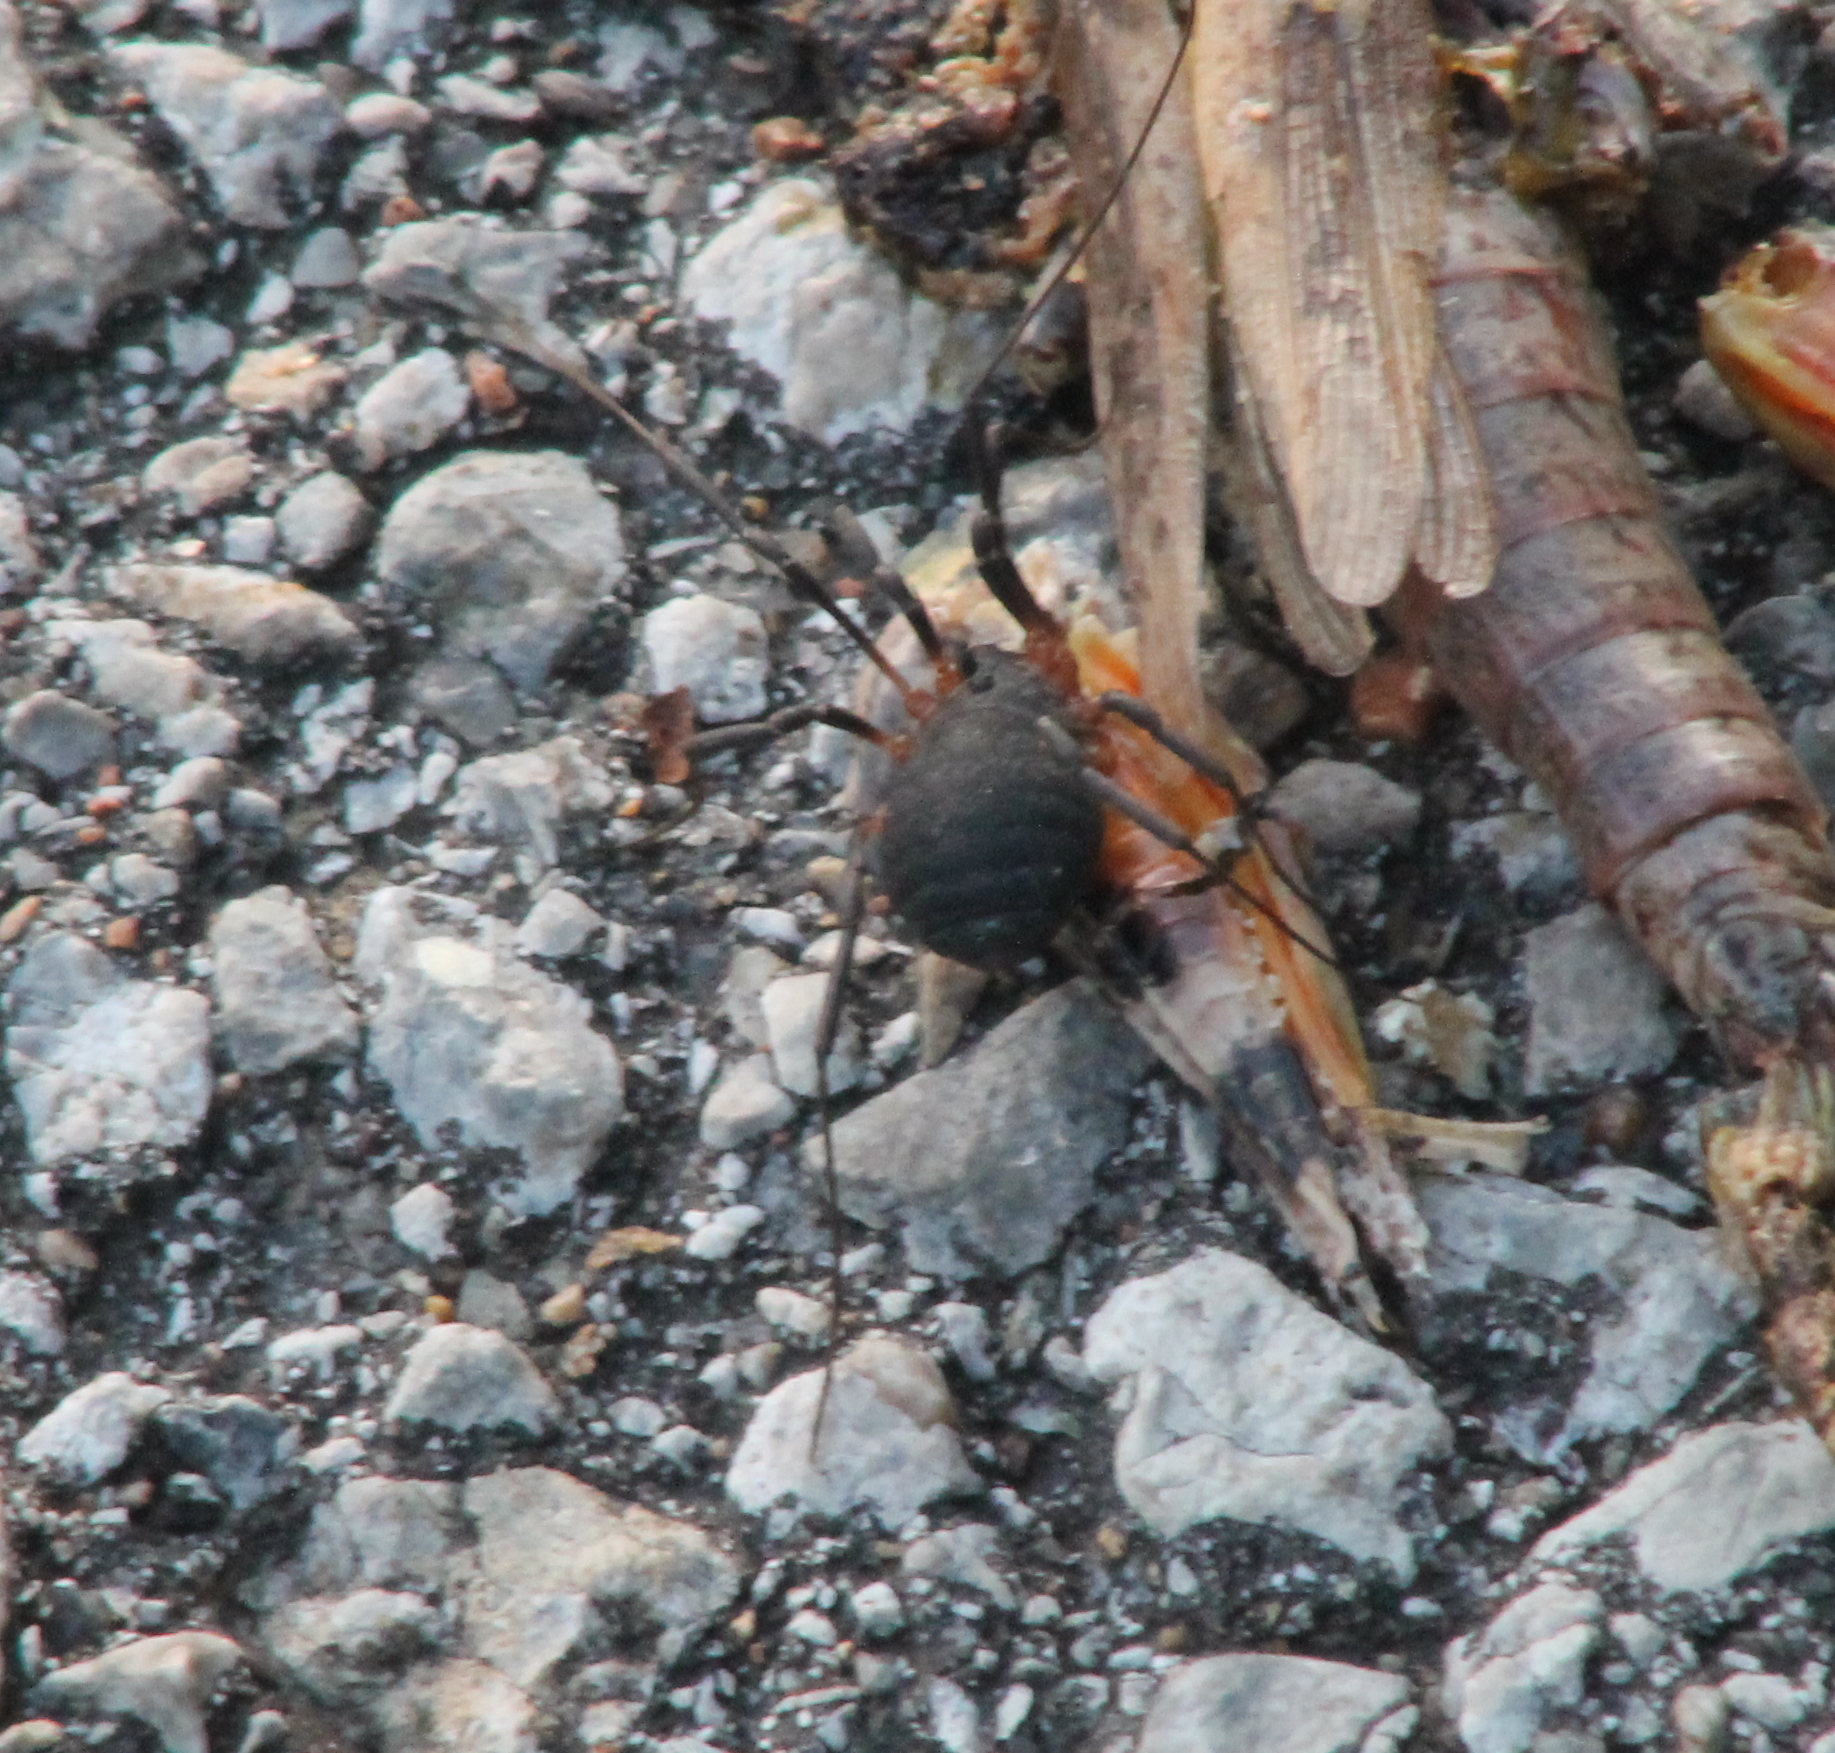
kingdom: Animalia
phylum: Arthropoda
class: Arachnida
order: Opiliones
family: Sclerosomatidae
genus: Eumesosoma
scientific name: Eumesosoma roeweri
